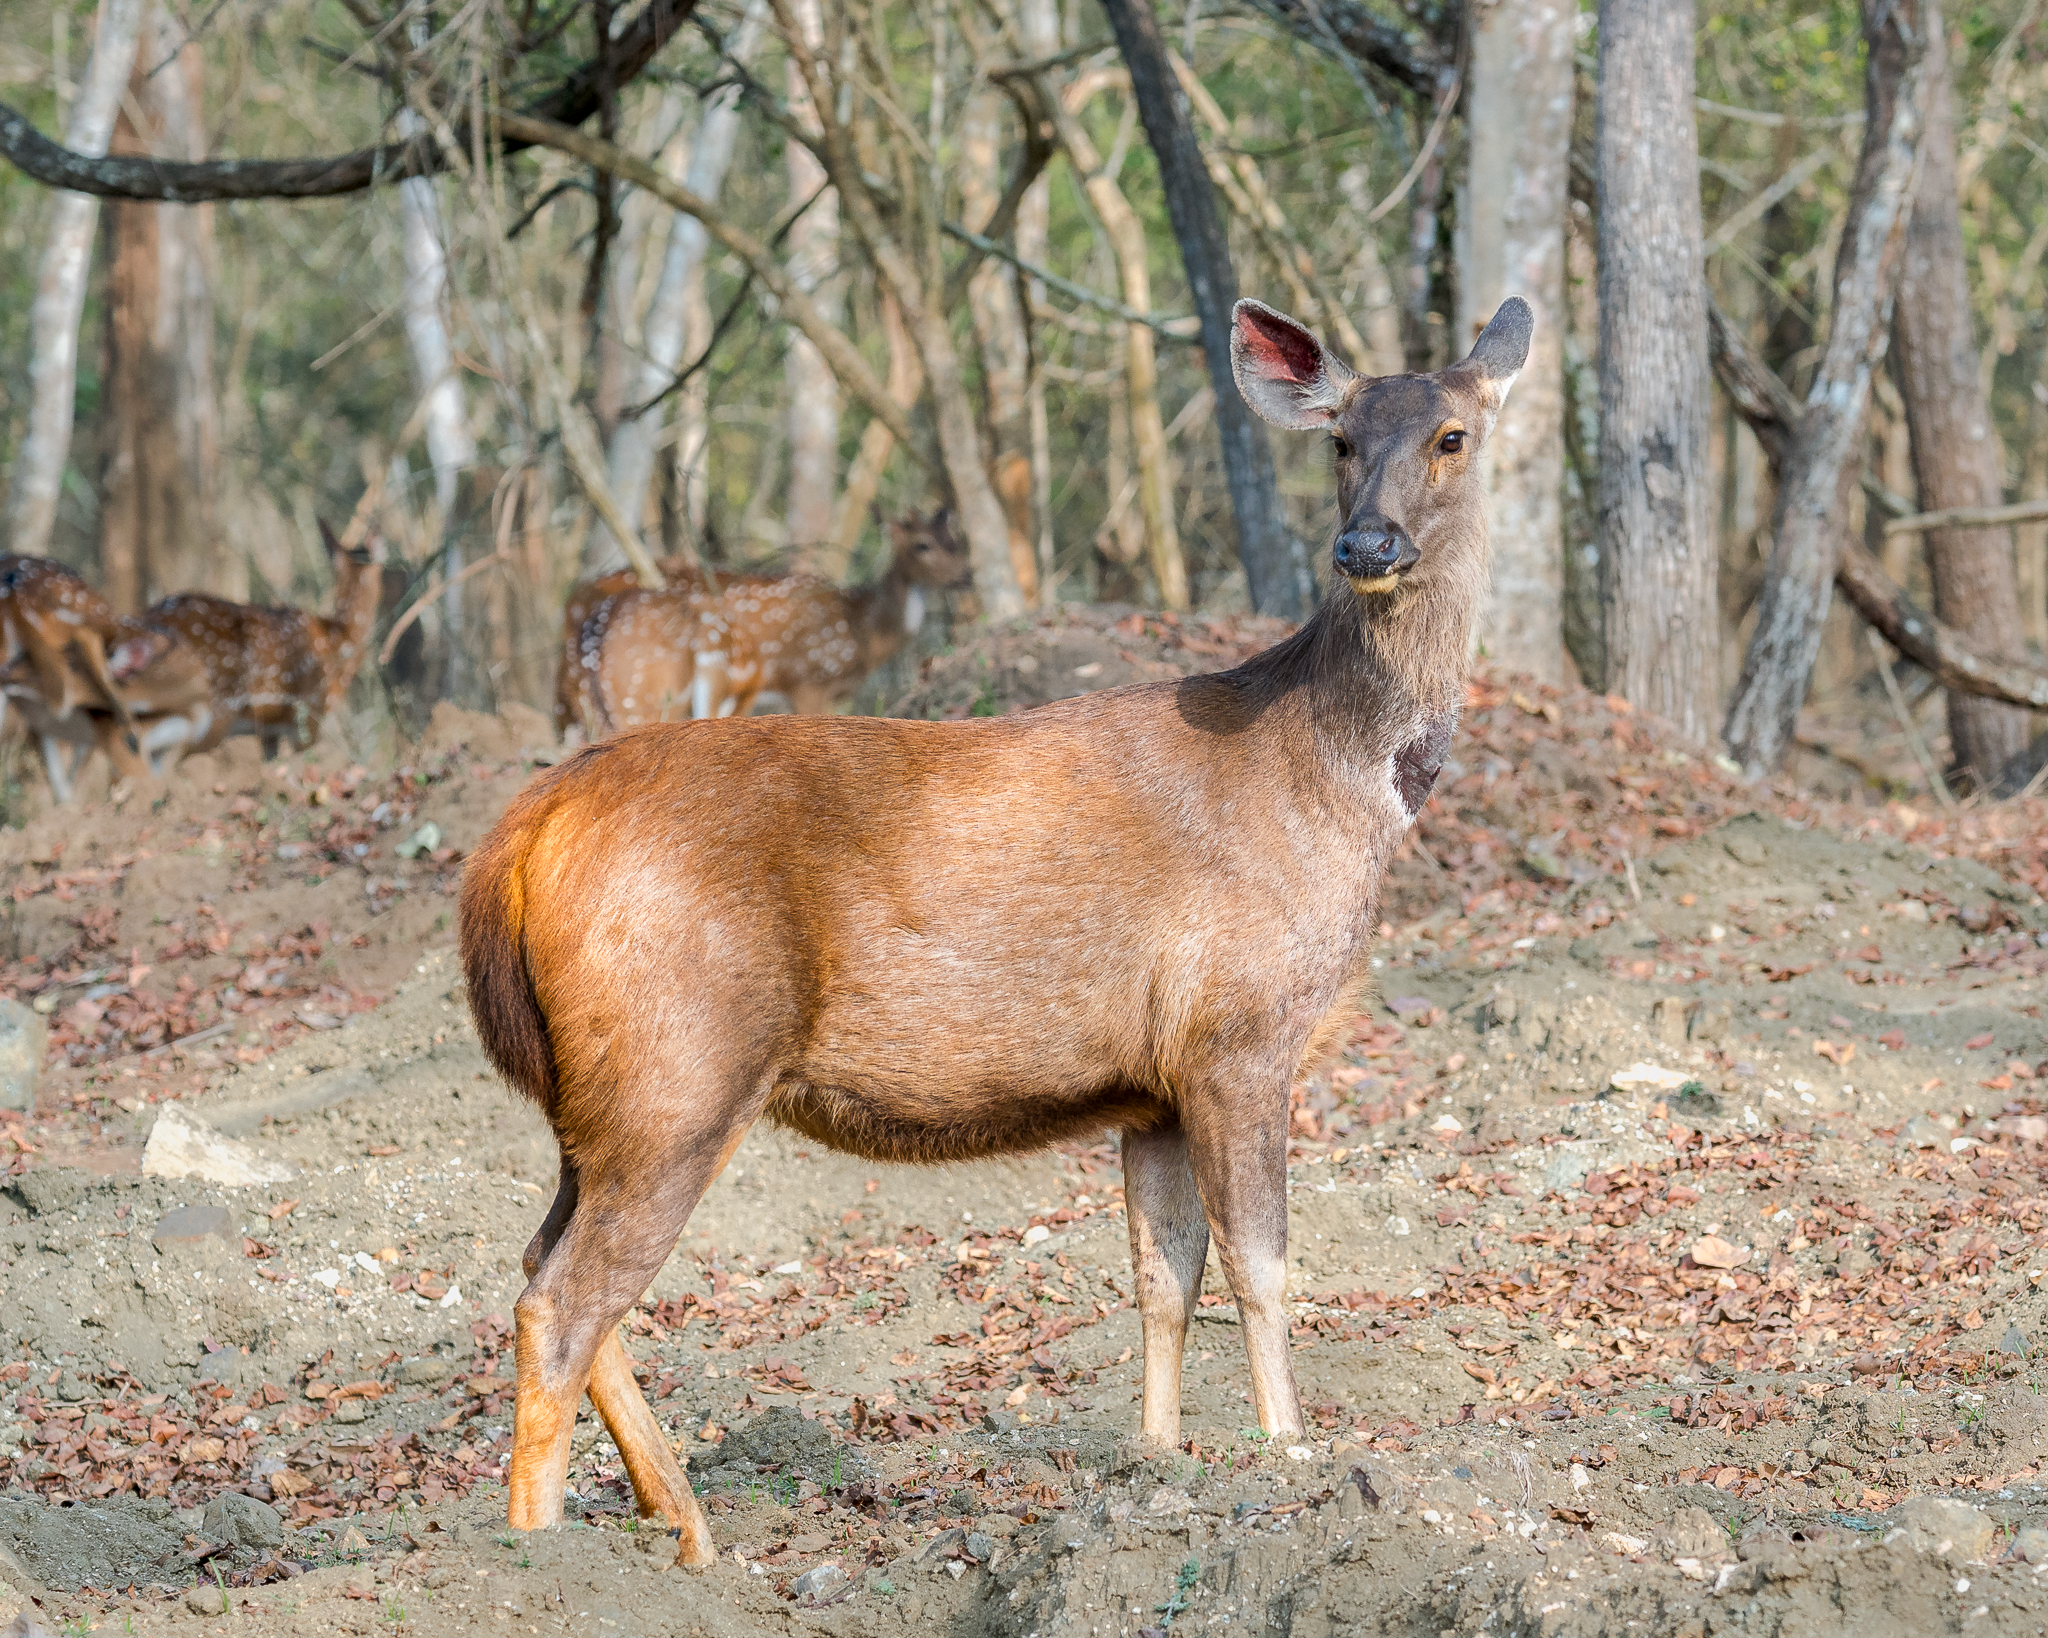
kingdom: Animalia
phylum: Chordata
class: Mammalia
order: Artiodactyla
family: Cervidae
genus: Rusa
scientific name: Rusa unicolor
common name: Sambar
